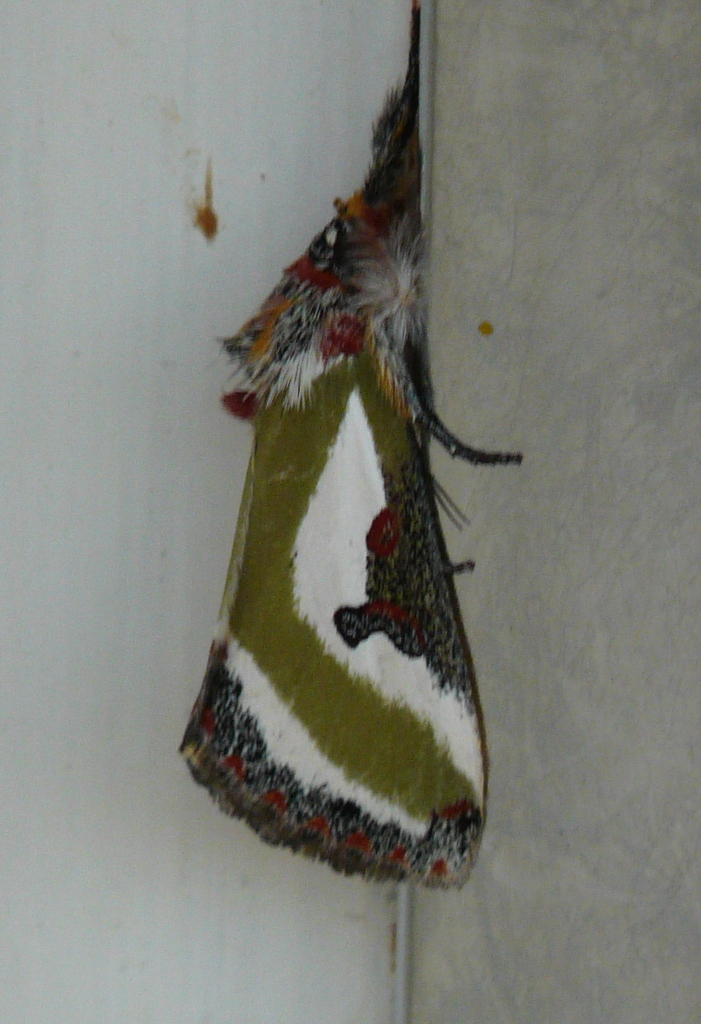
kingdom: Animalia
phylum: Arthropoda
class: Insecta
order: Lepidoptera
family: Noctuidae
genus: Ovios
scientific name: Ovios capensis
